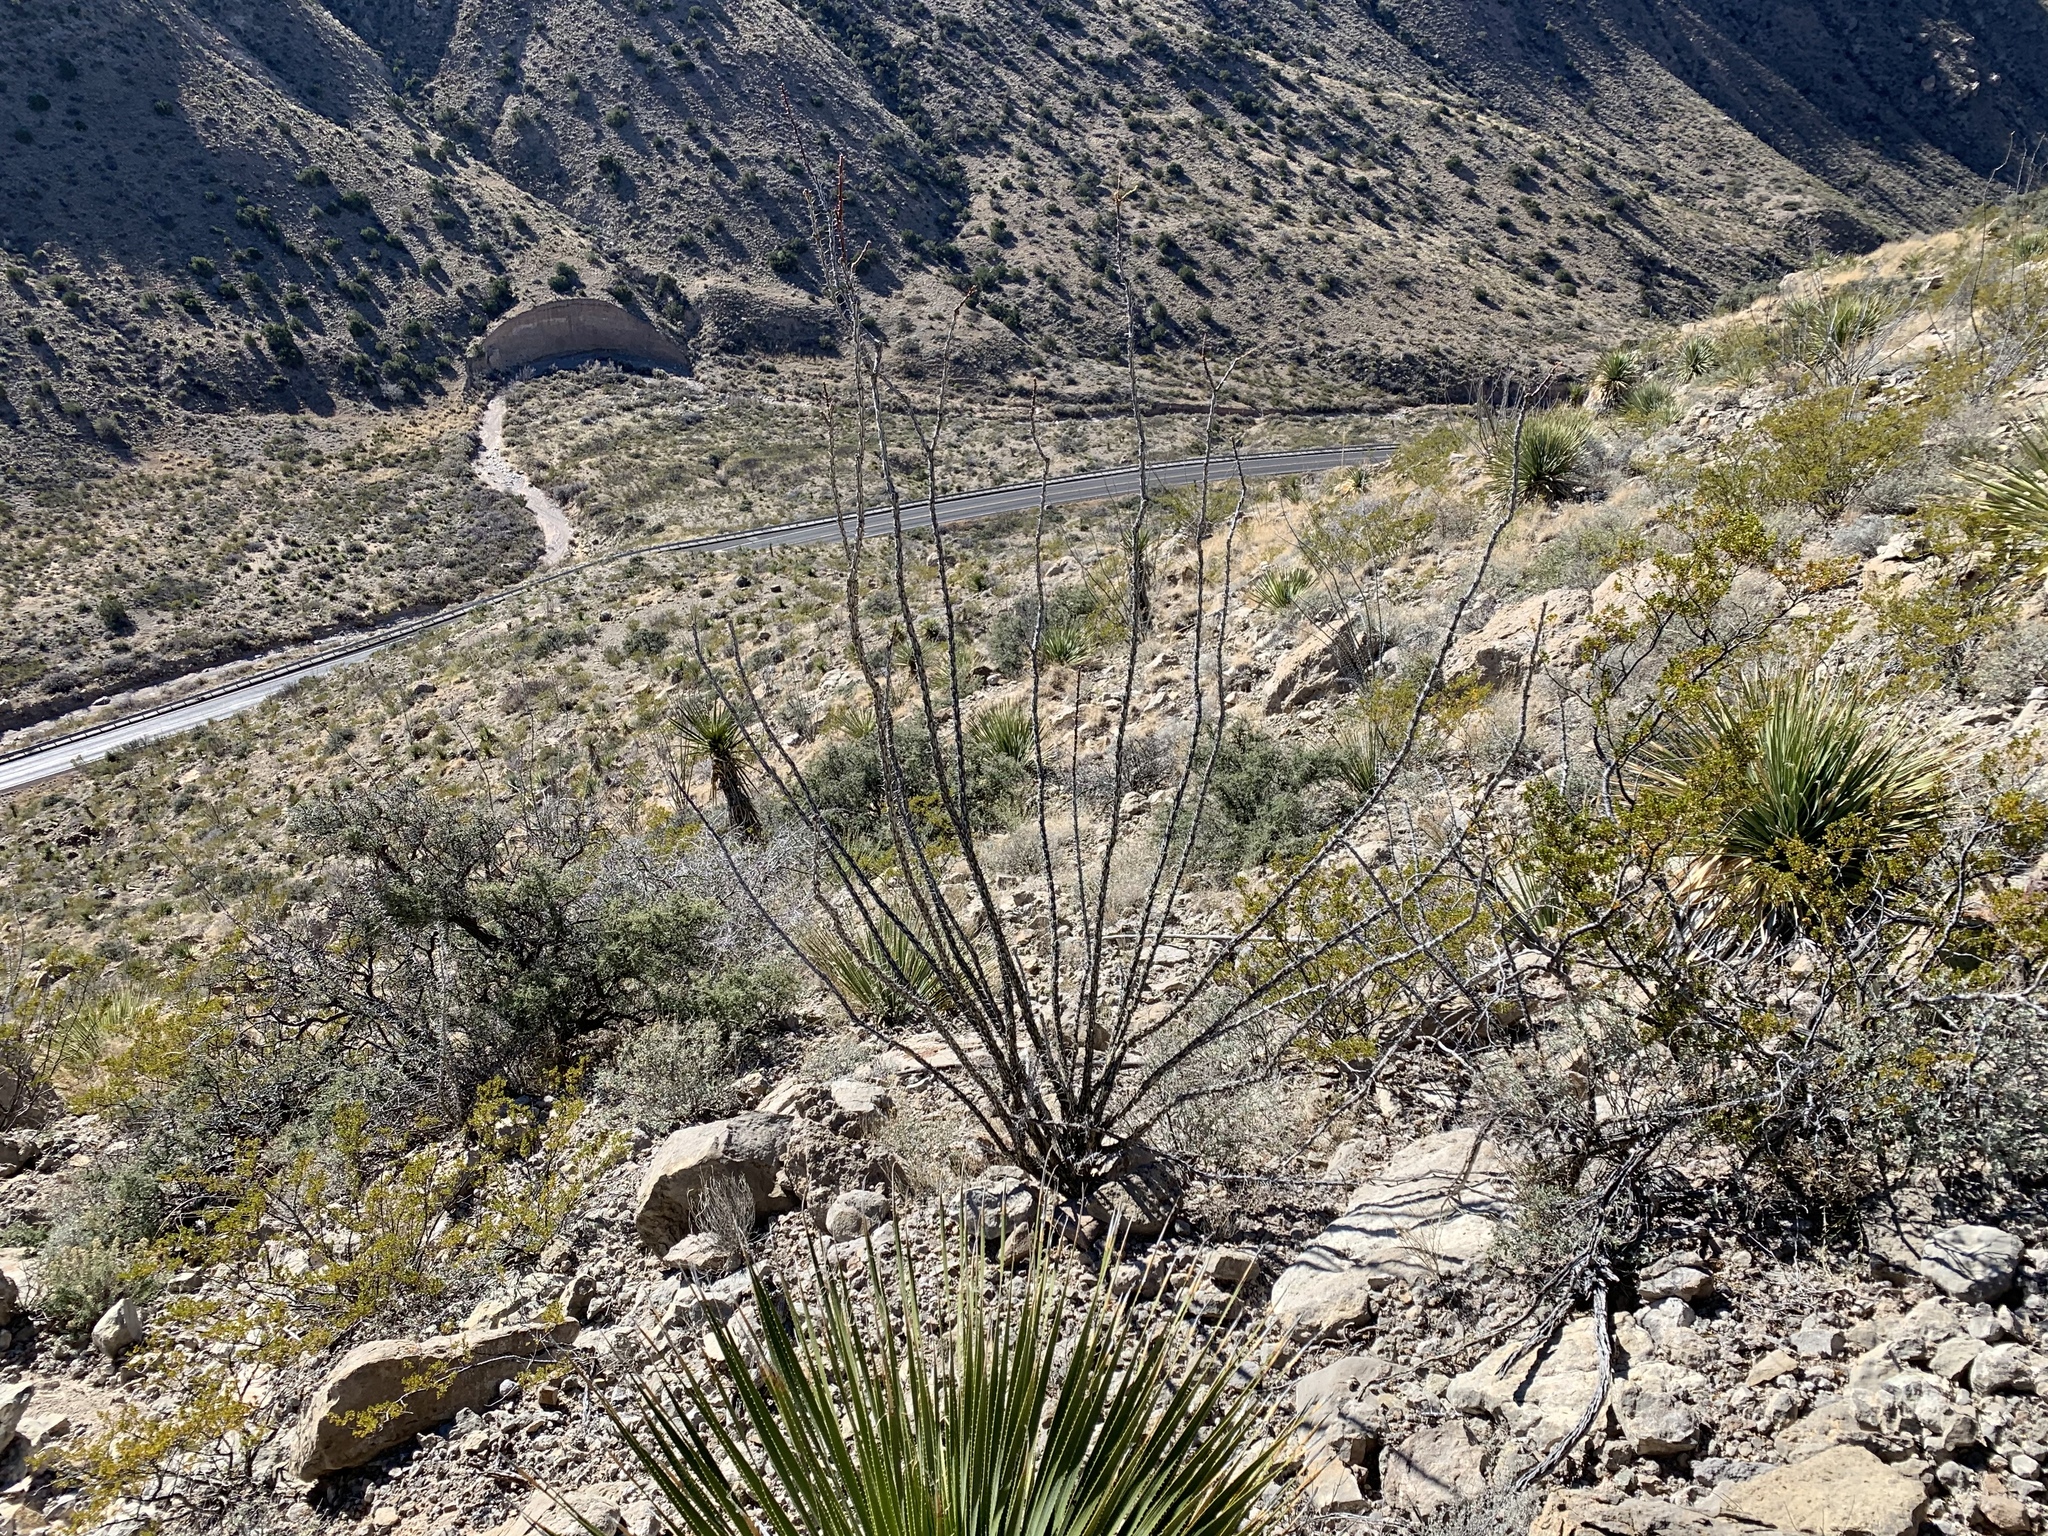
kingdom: Plantae
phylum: Tracheophyta
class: Magnoliopsida
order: Ericales
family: Fouquieriaceae
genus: Fouquieria
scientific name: Fouquieria splendens
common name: Vine-cactus
